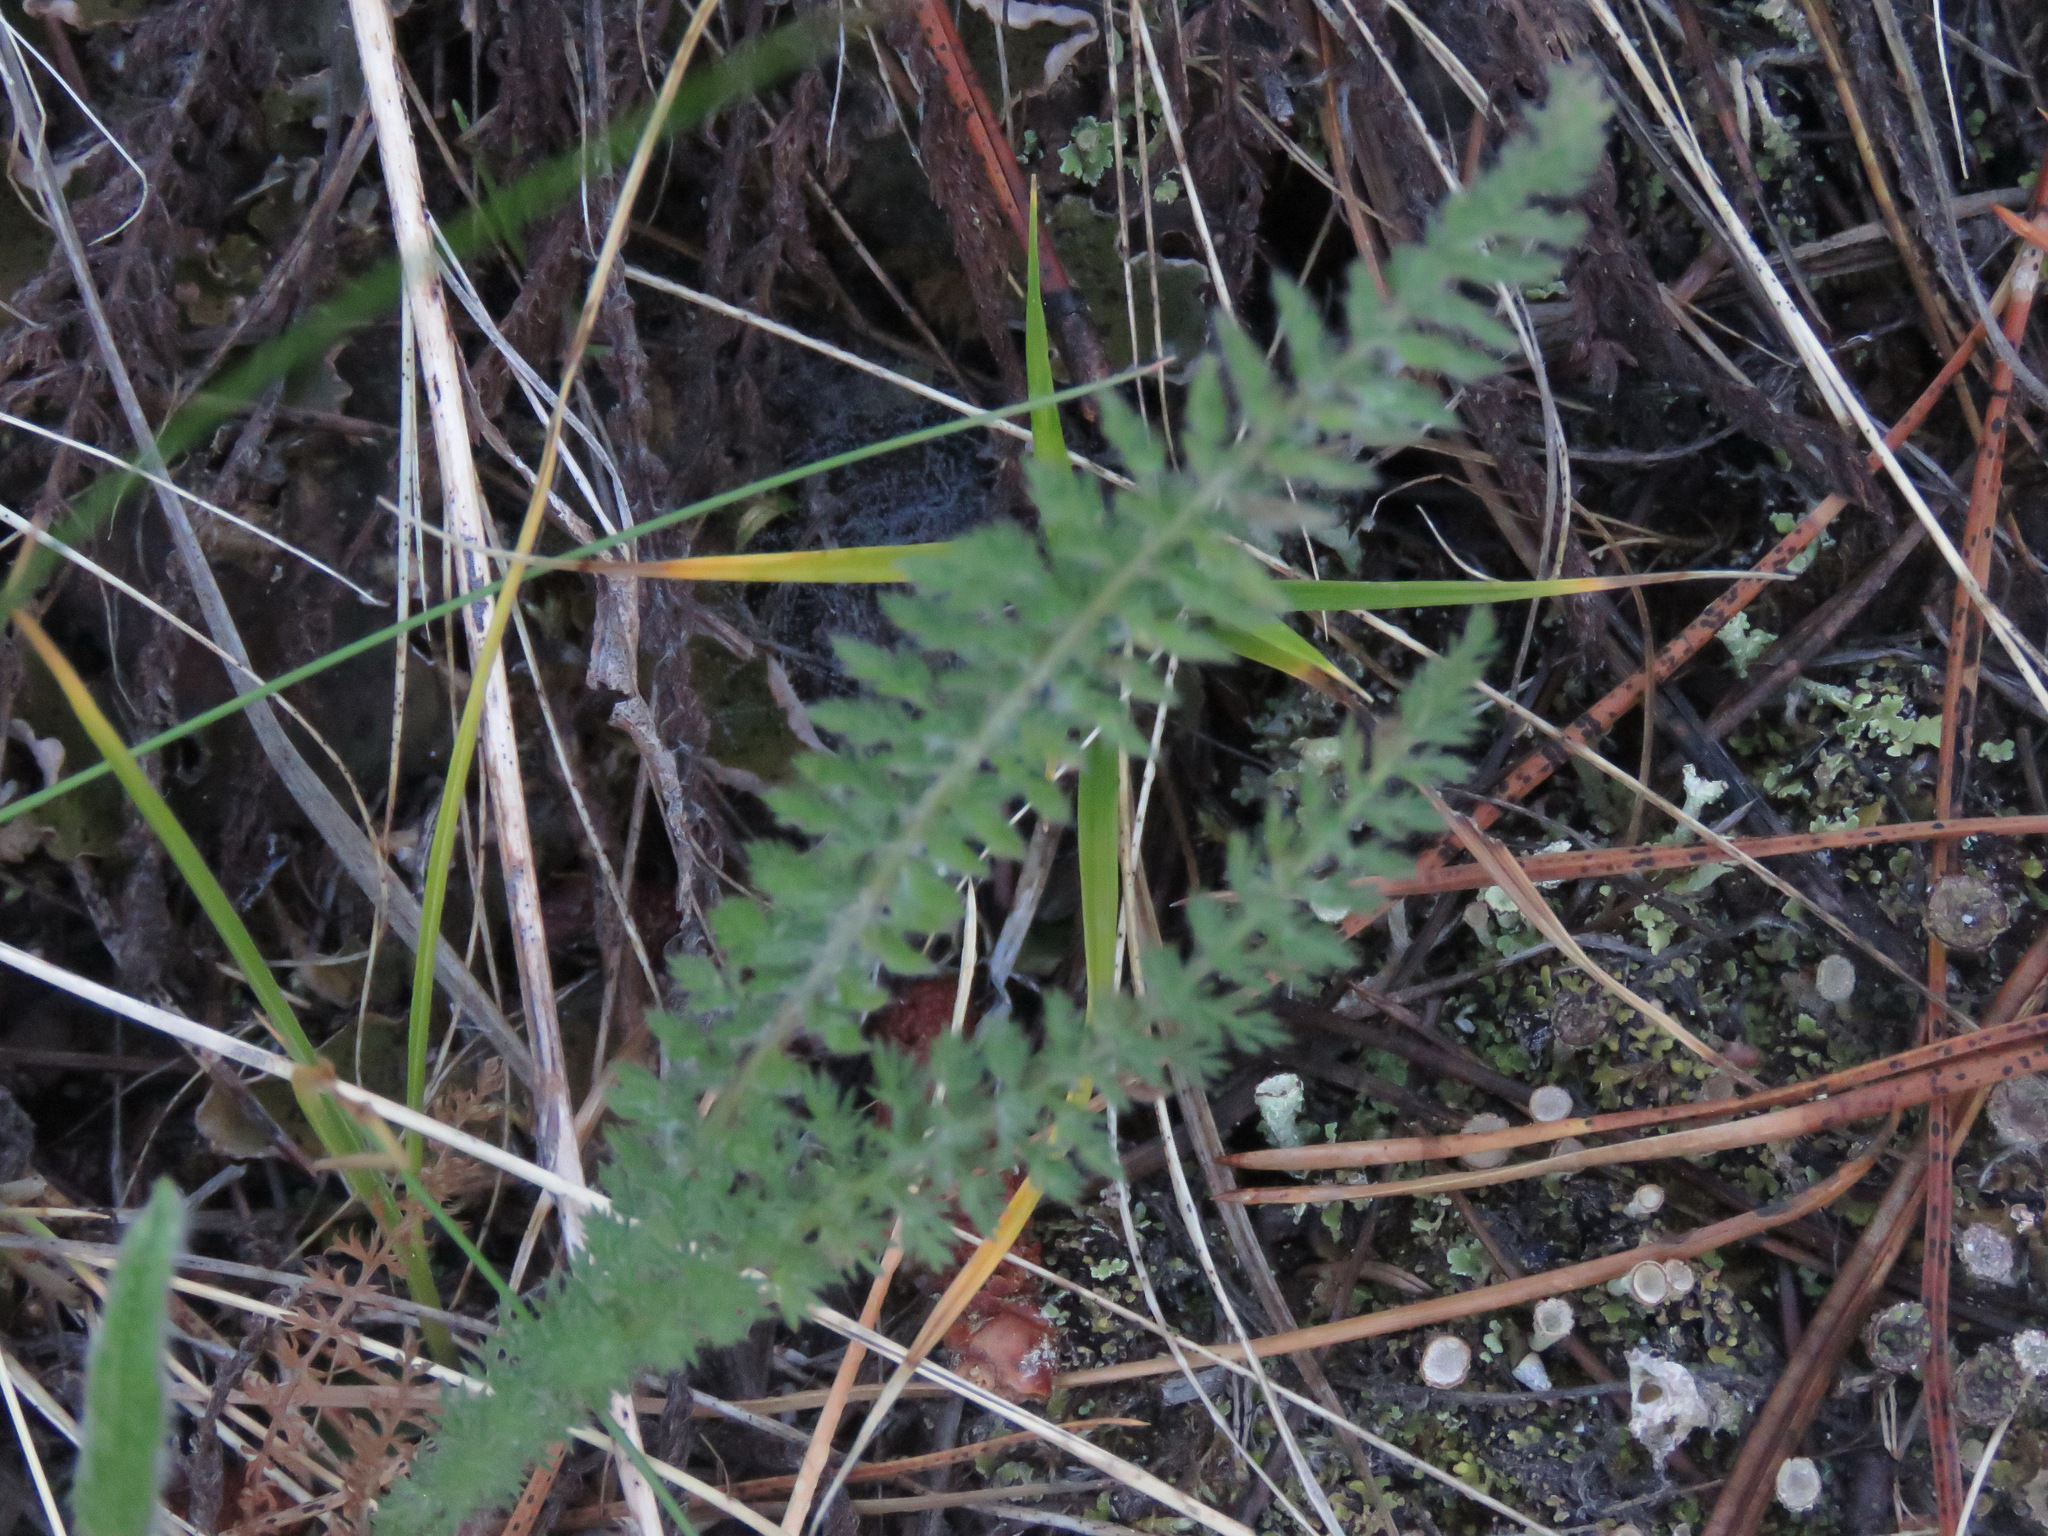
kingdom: Plantae
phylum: Tracheophyta
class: Magnoliopsida
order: Asterales
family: Asteraceae
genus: Achillea
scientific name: Achillea millefolium
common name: Yarrow
